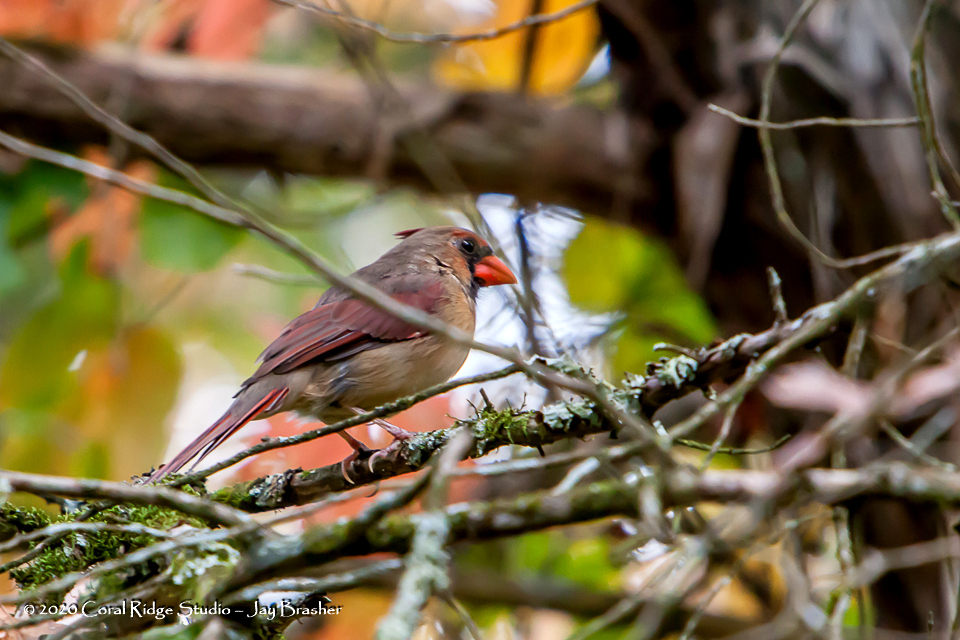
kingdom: Animalia
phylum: Chordata
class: Aves
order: Passeriformes
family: Cardinalidae
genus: Cardinalis
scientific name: Cardinalis cardinalis
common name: Northern cardinal
